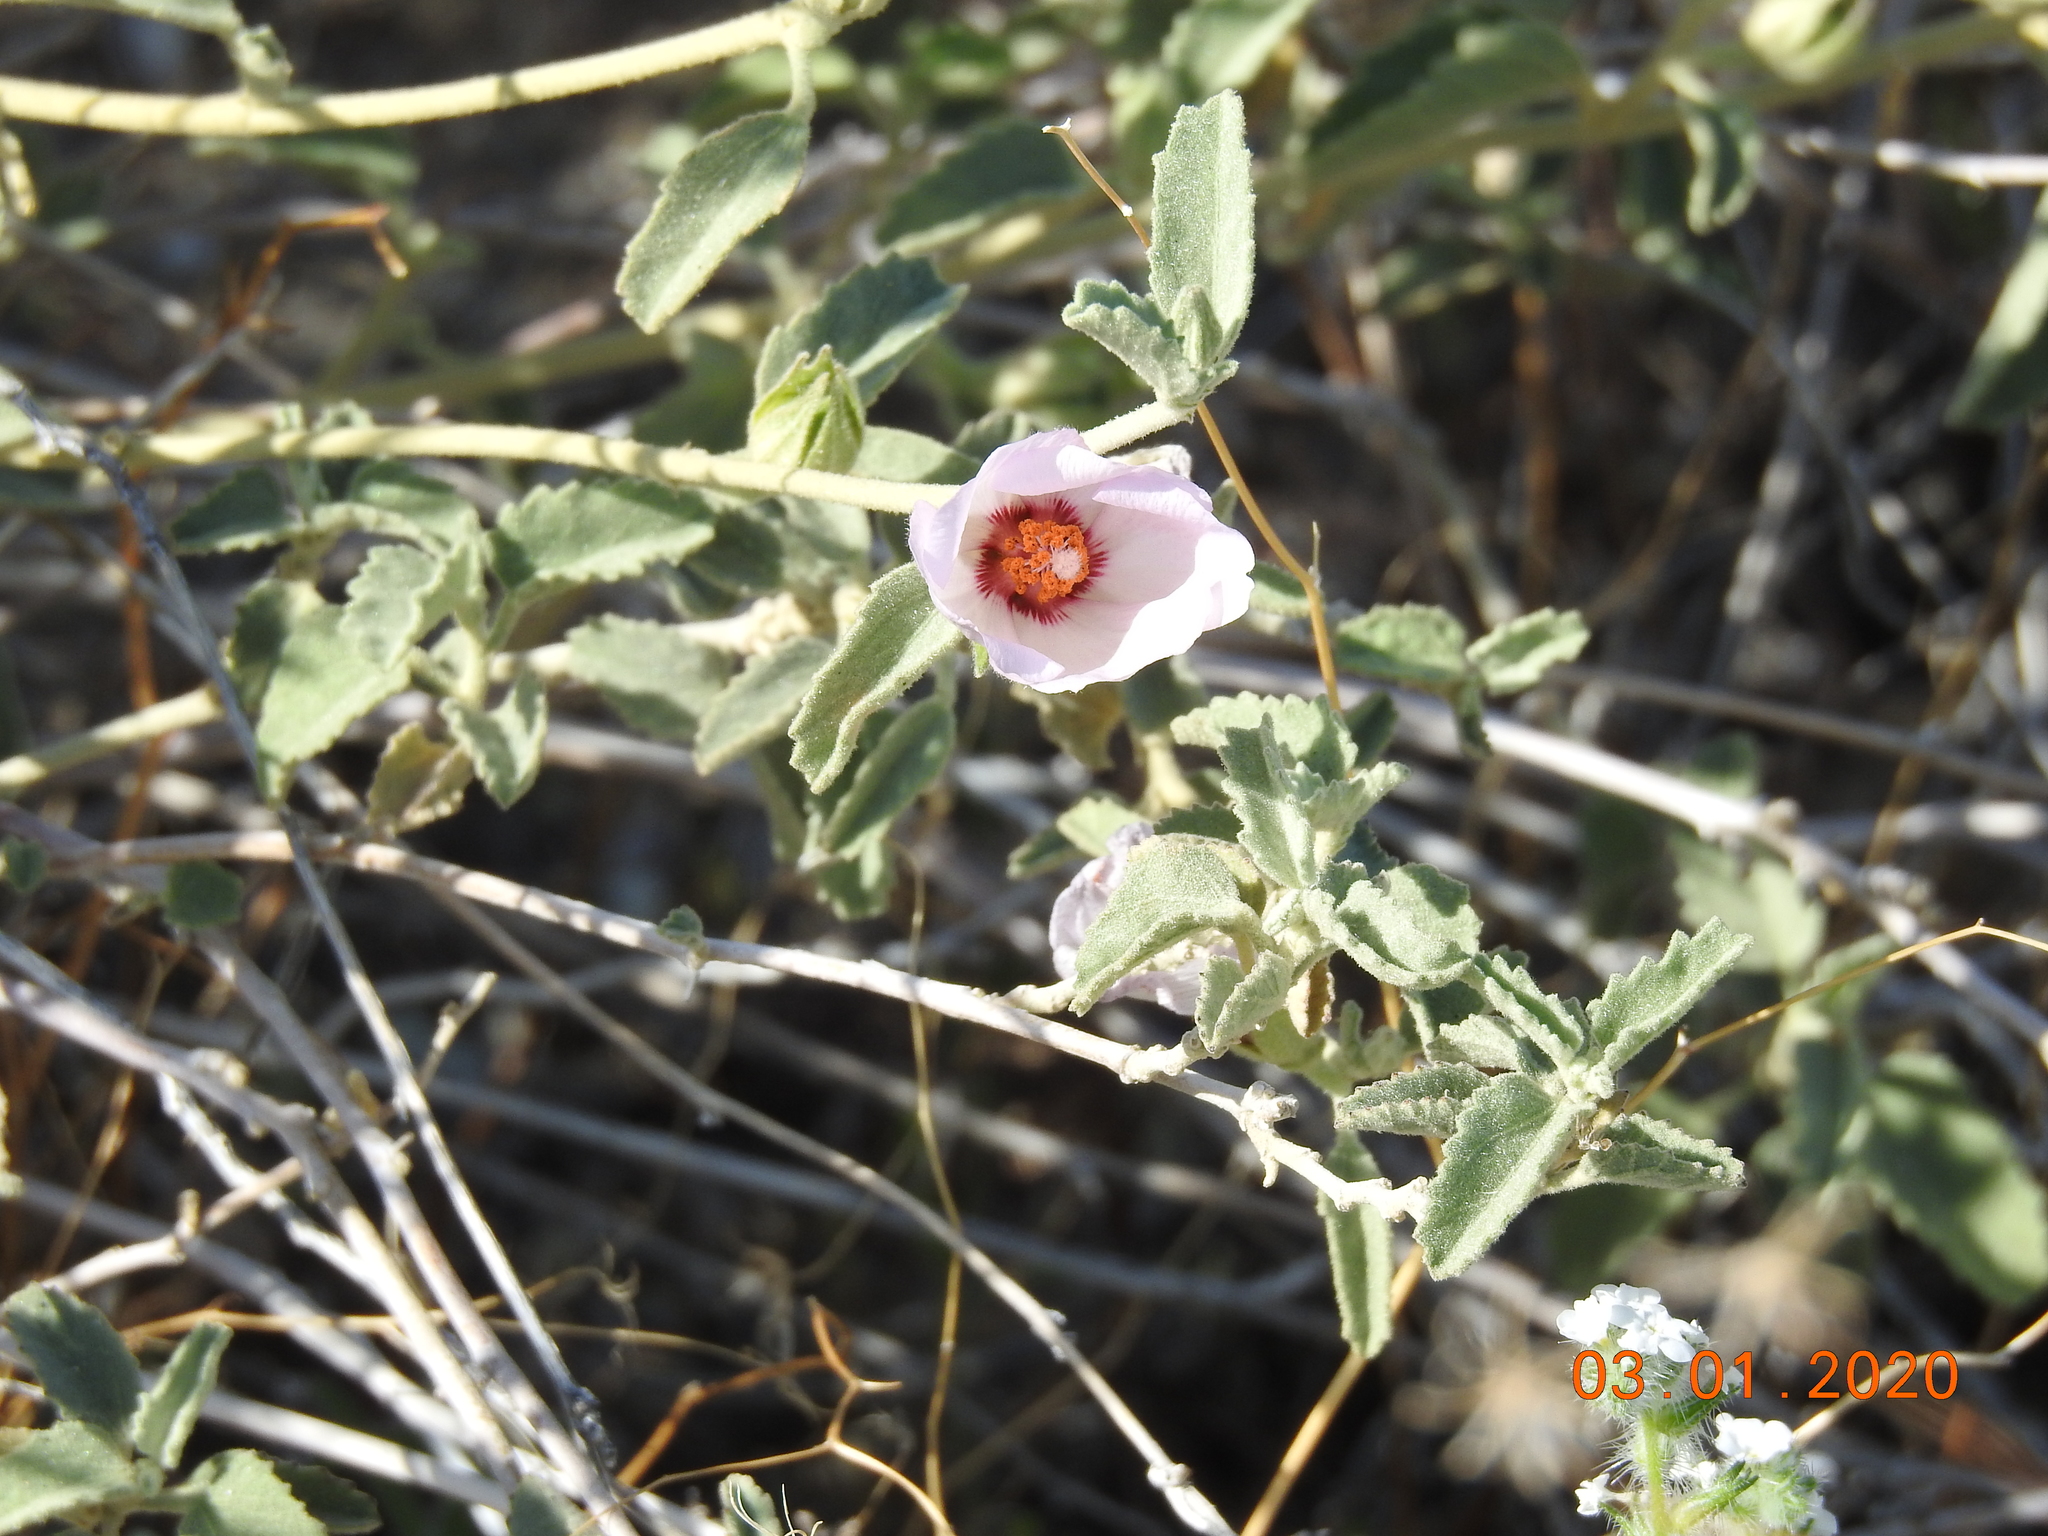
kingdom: Plantae
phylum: Tracheophyta
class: Magnoliopsida
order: Malvales
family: Malvaceae
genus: Hibiscus
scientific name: Hibiscus denudatus
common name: Paleface
